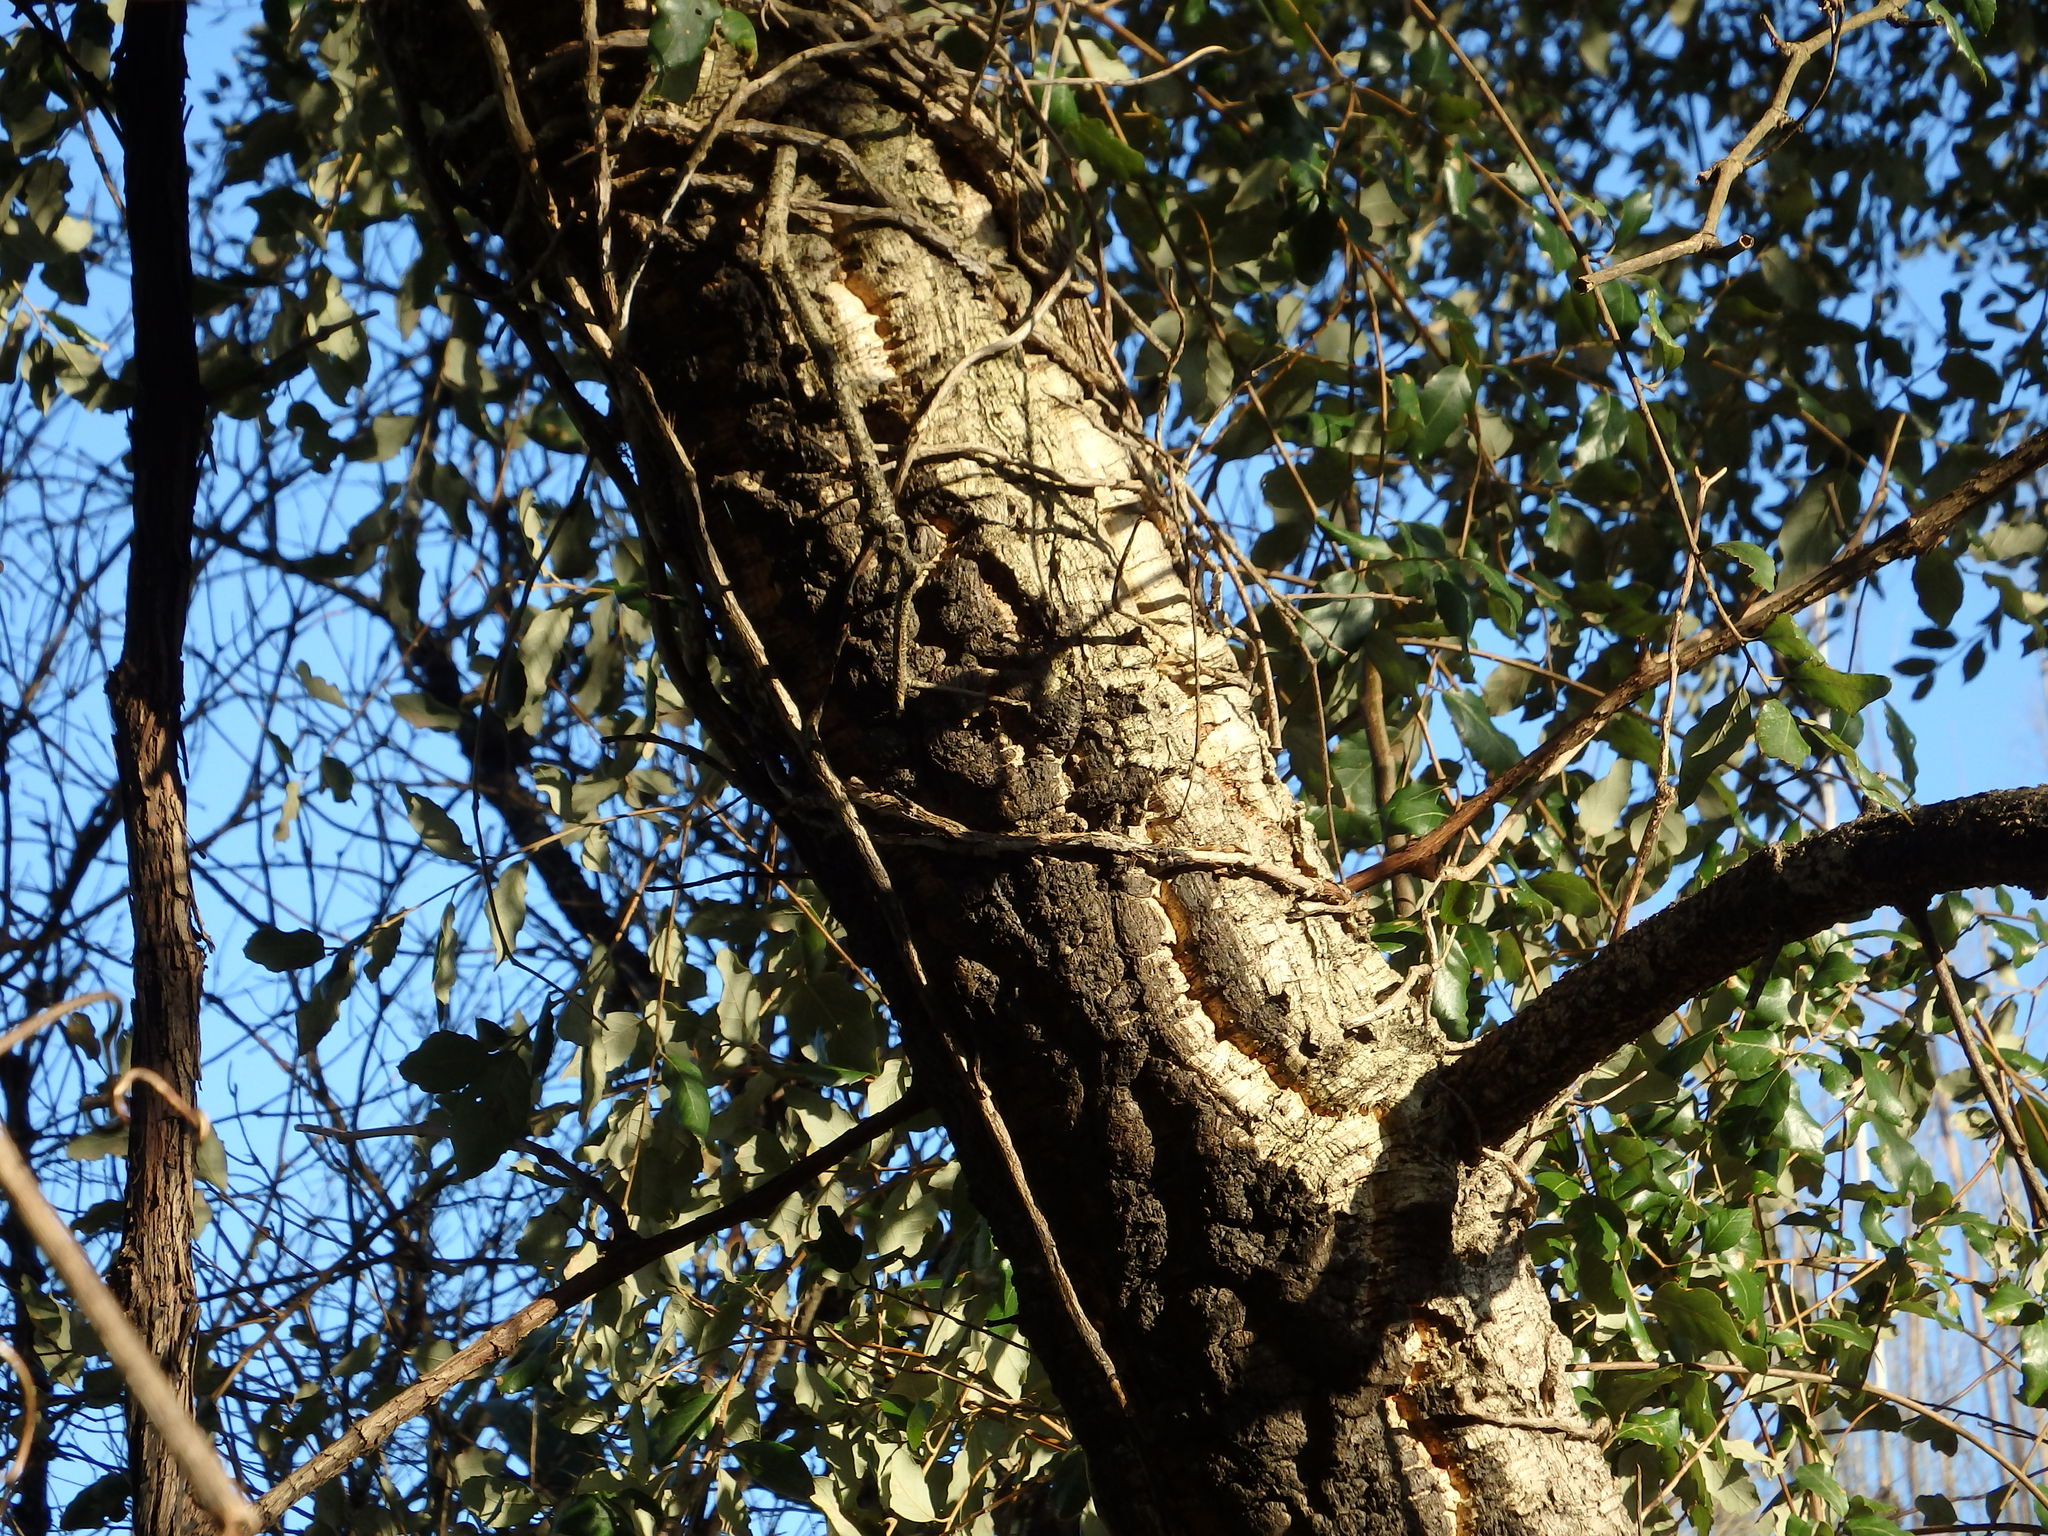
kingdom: Plantae
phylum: Tracheophyta
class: Magnoliopsida
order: Fagales
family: Fagaceae
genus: Quercus
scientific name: Quercus suber
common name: Cork oak
